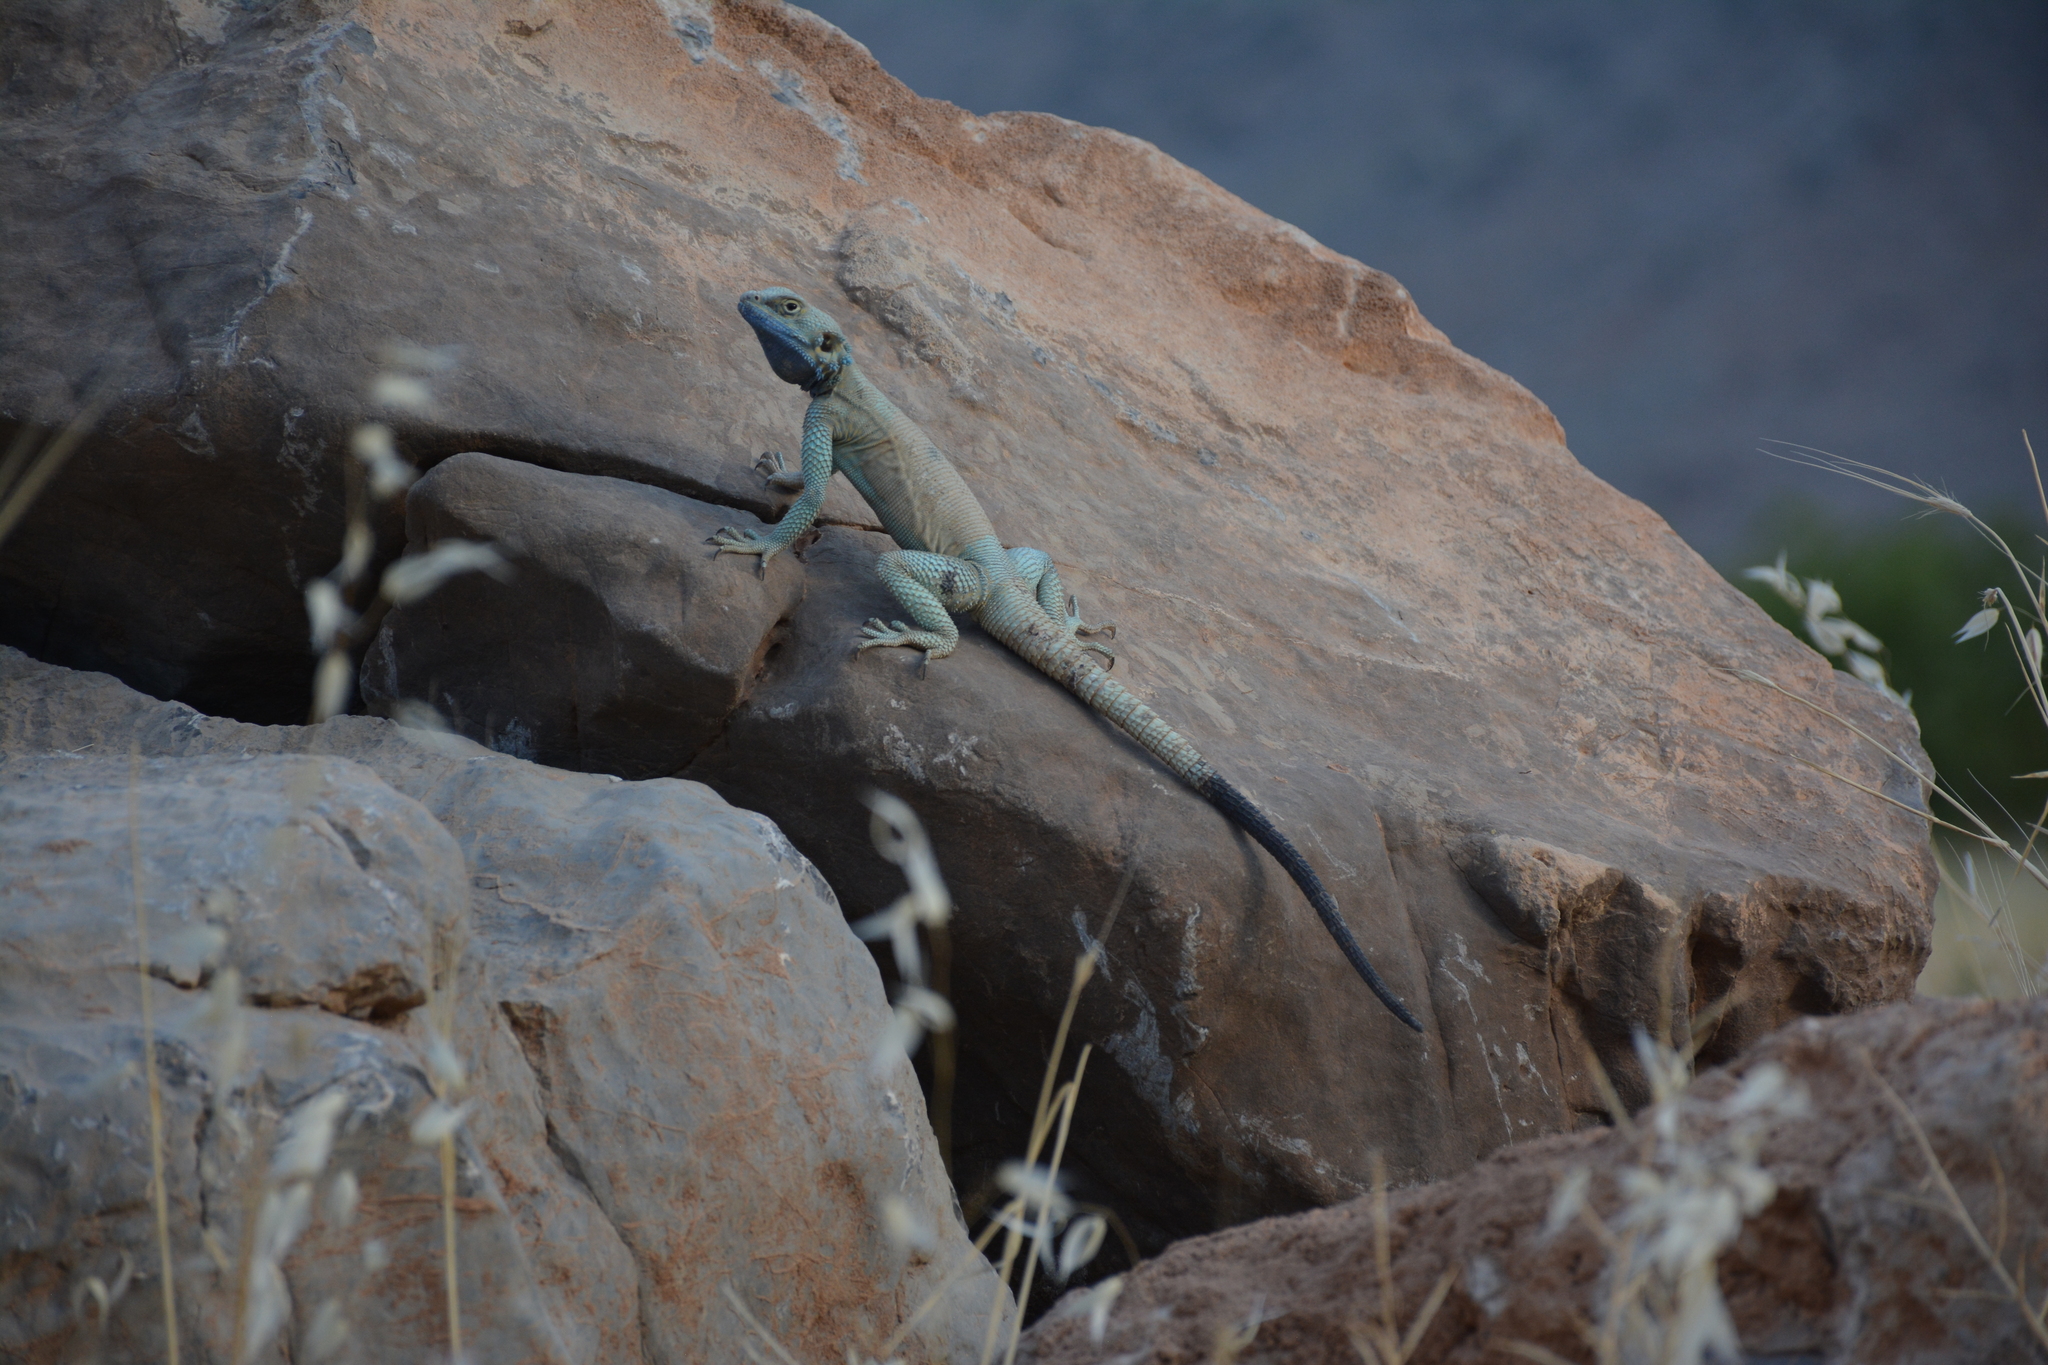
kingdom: Animalia
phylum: Chordata
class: Squamata
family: Agamidae
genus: Laudakia
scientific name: Laudakia nupta
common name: Large-headed rock agama
